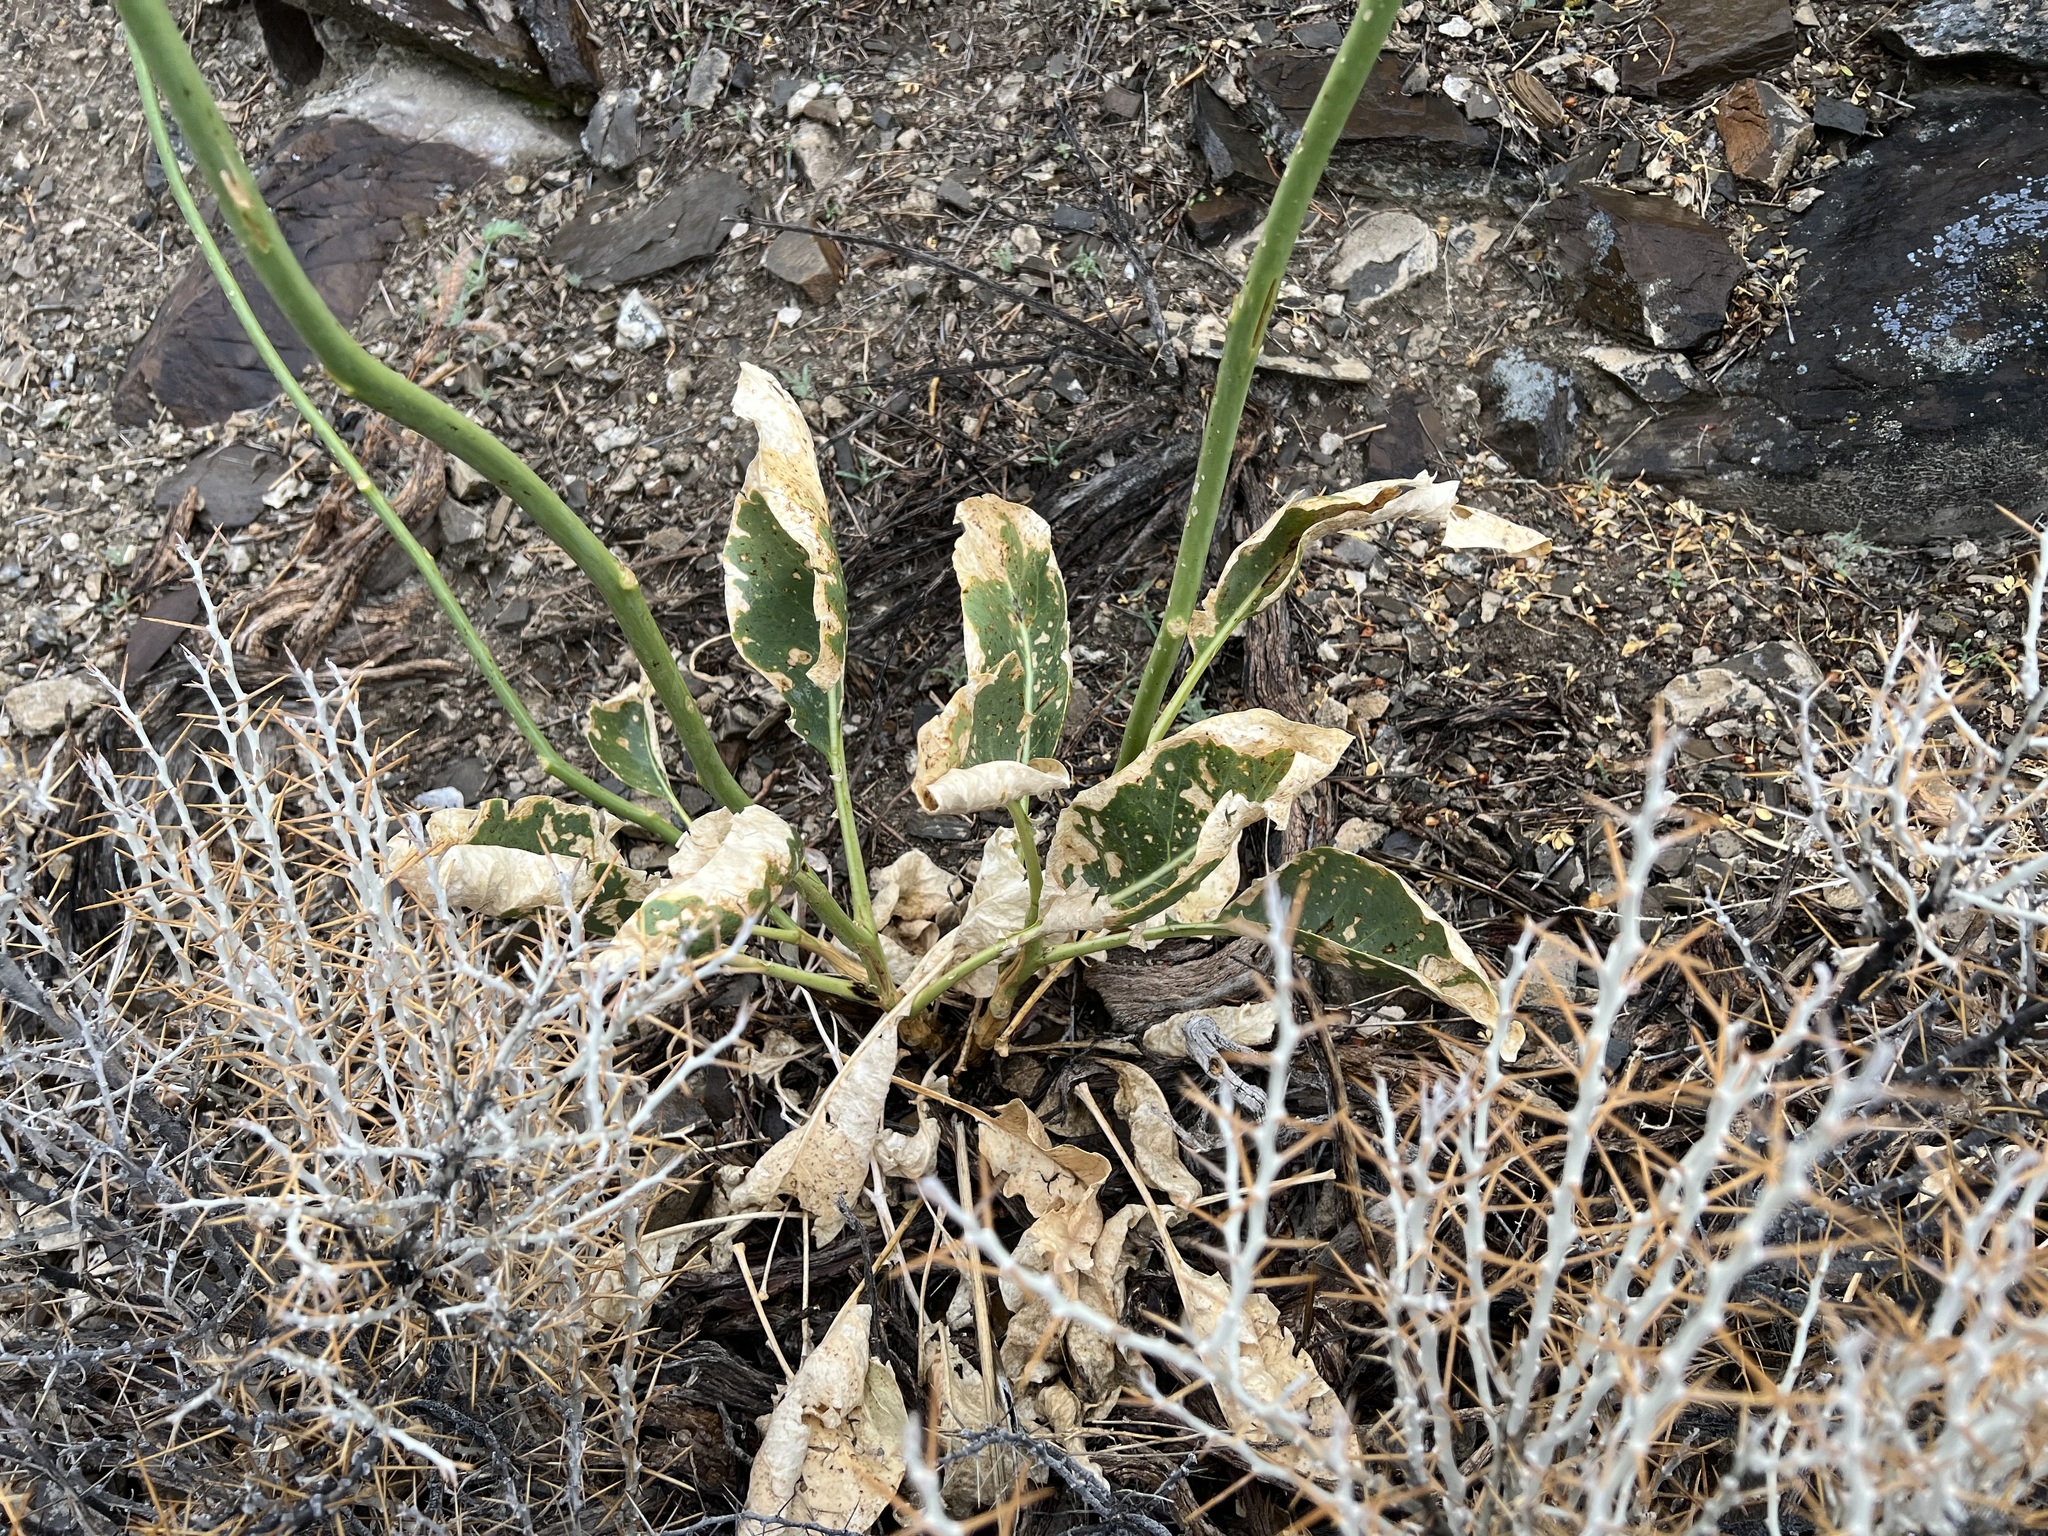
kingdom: Plantae
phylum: Tracheophyta
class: Magnoliopsida
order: Brassicales
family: Brassicaceae
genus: Stanleya
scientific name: Stanleya elata
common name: Panamint prince's plume
